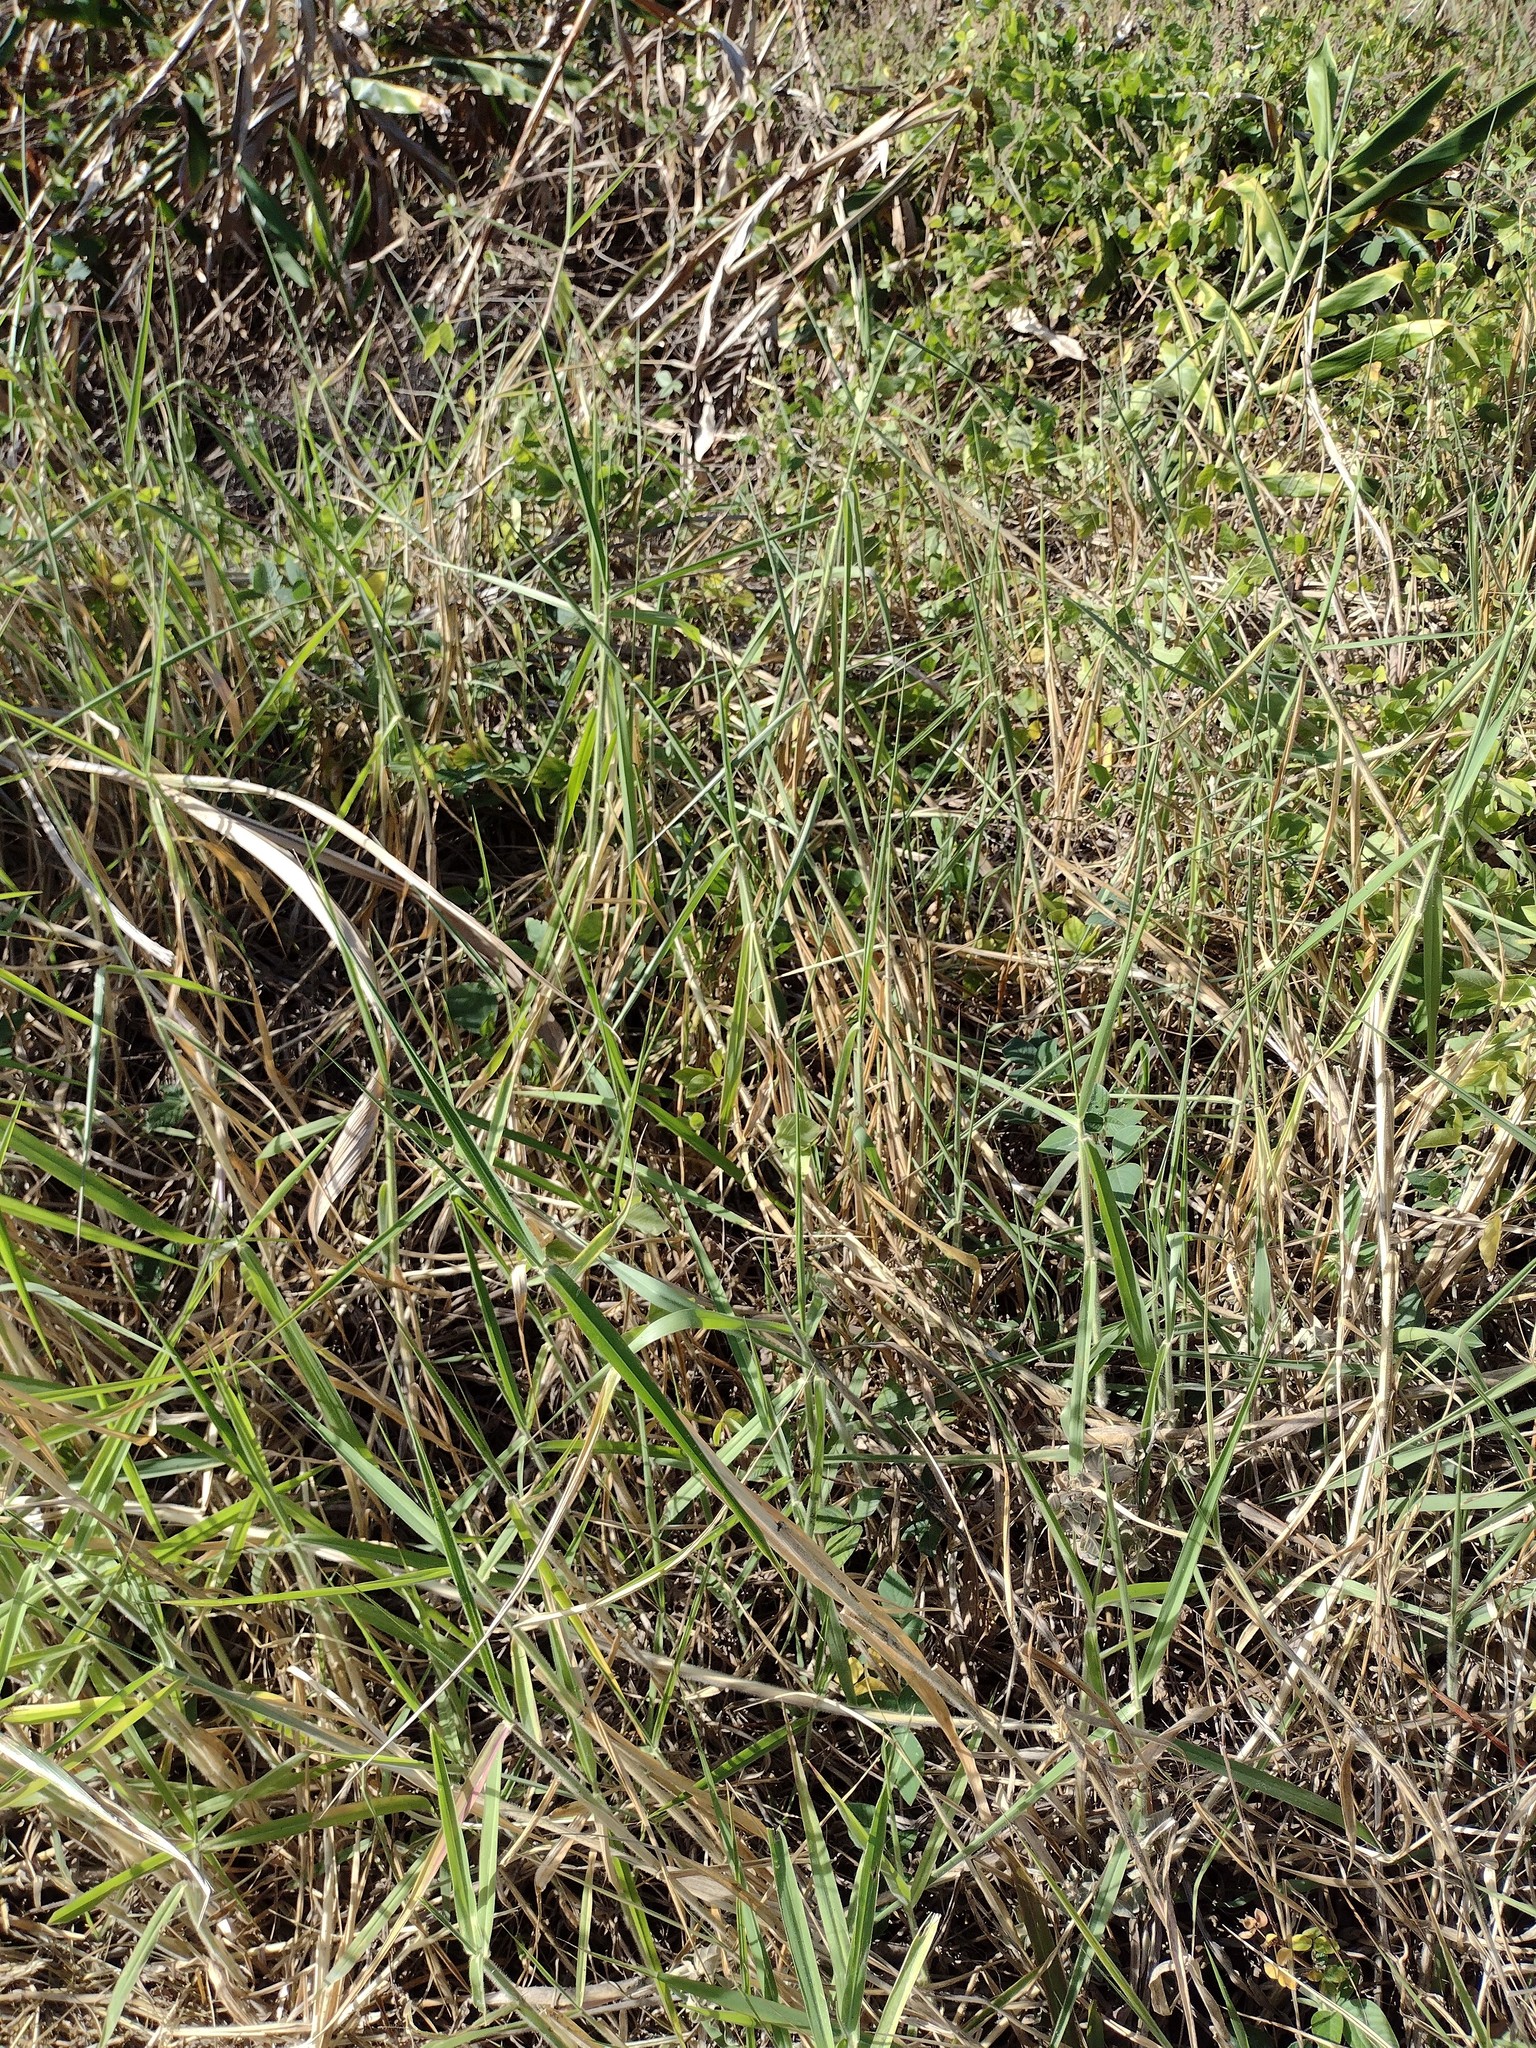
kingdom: Plantae
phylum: Tracheophyta
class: Liliopsida
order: Poales
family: Poaceae
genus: Urochloa
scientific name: Urochloa mutica
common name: Para grass
